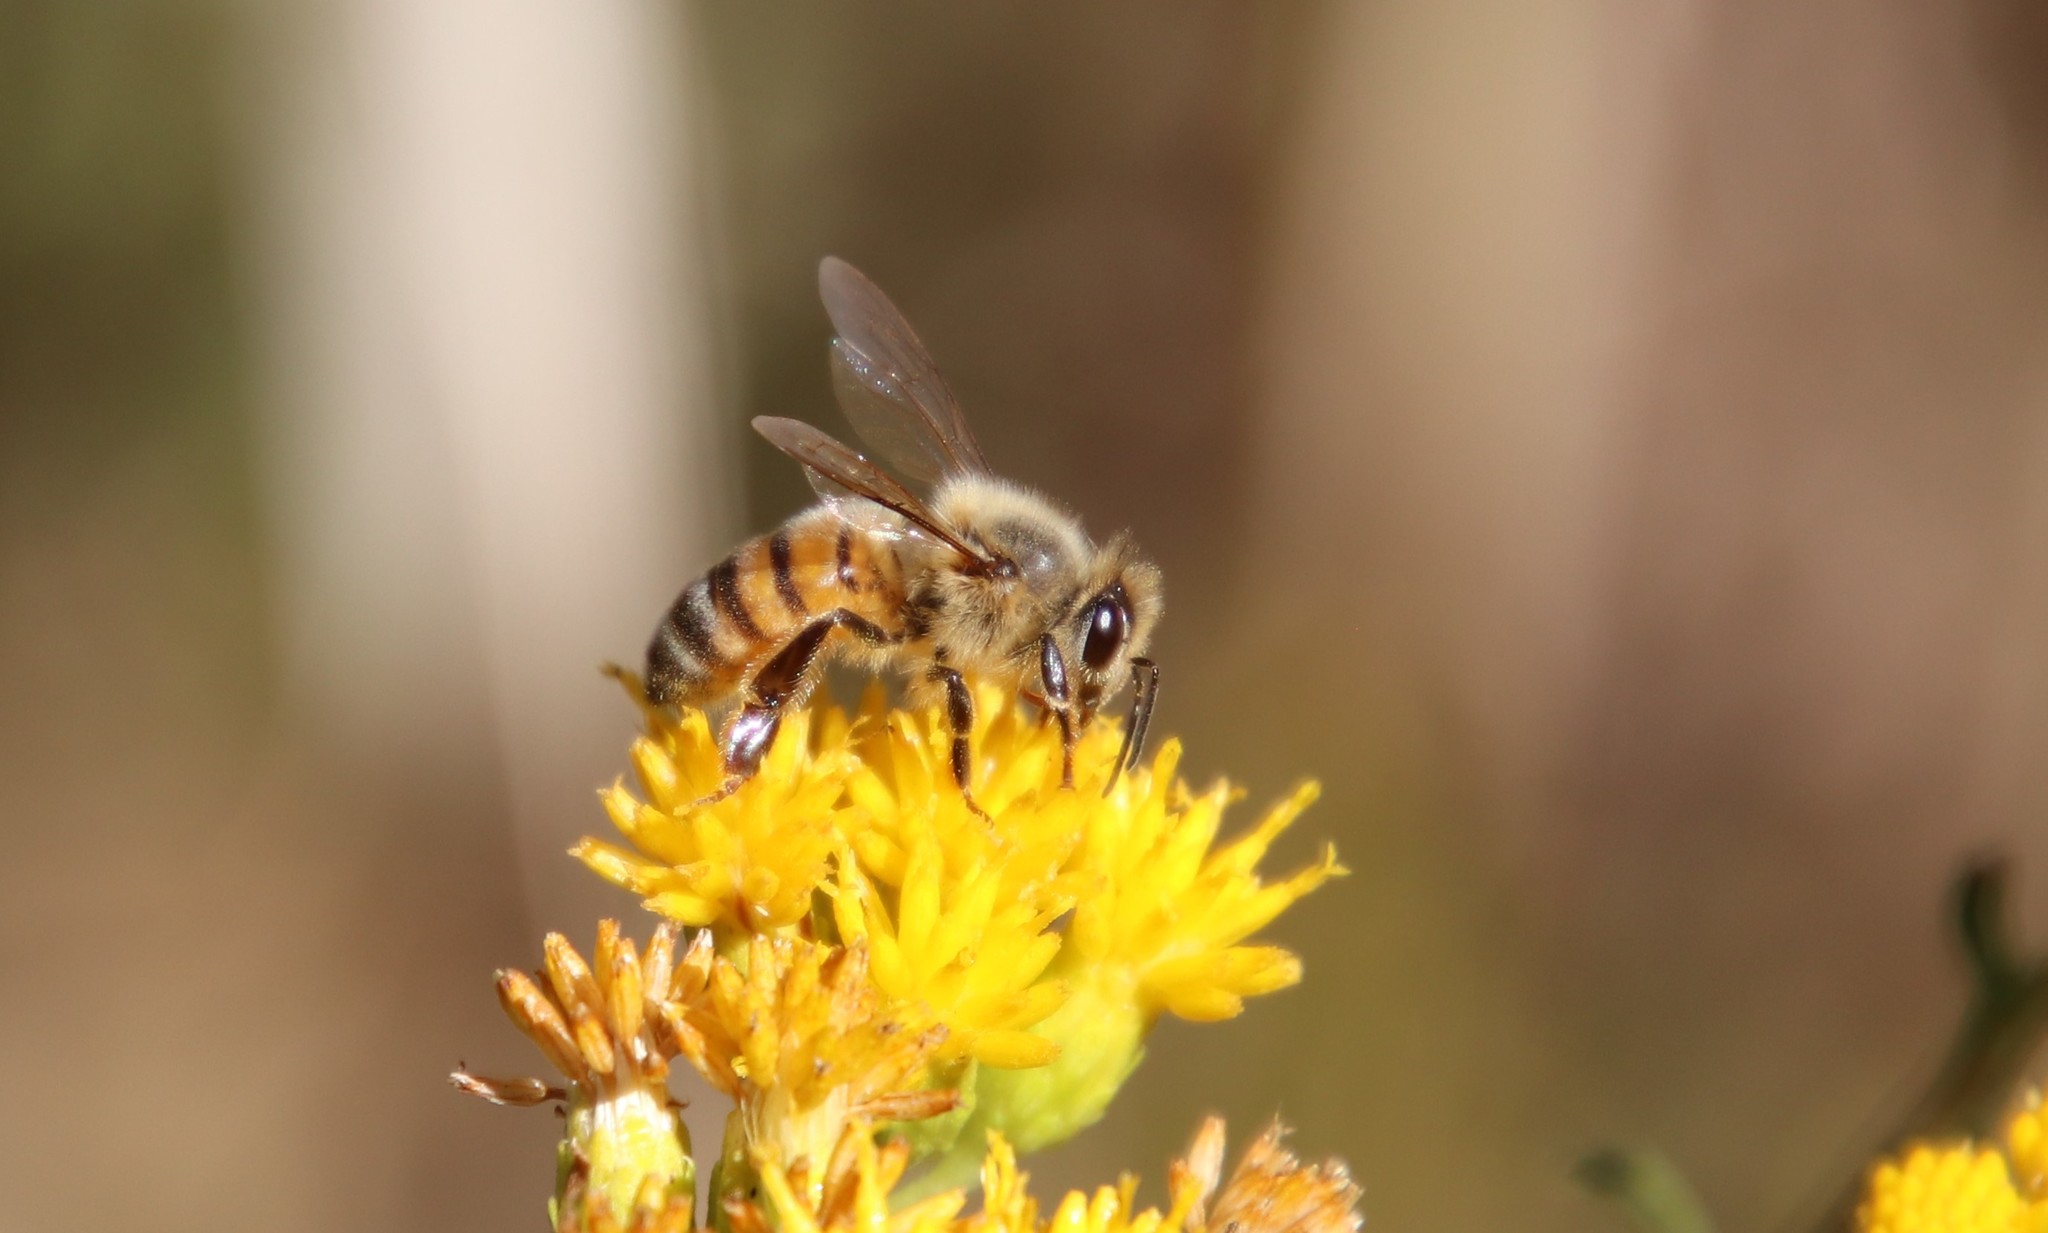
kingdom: Animalia
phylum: Arthropoda
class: Insecta
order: Hymenoptera
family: Apidae
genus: Apis
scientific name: Apis mellifera
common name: Honey bee
